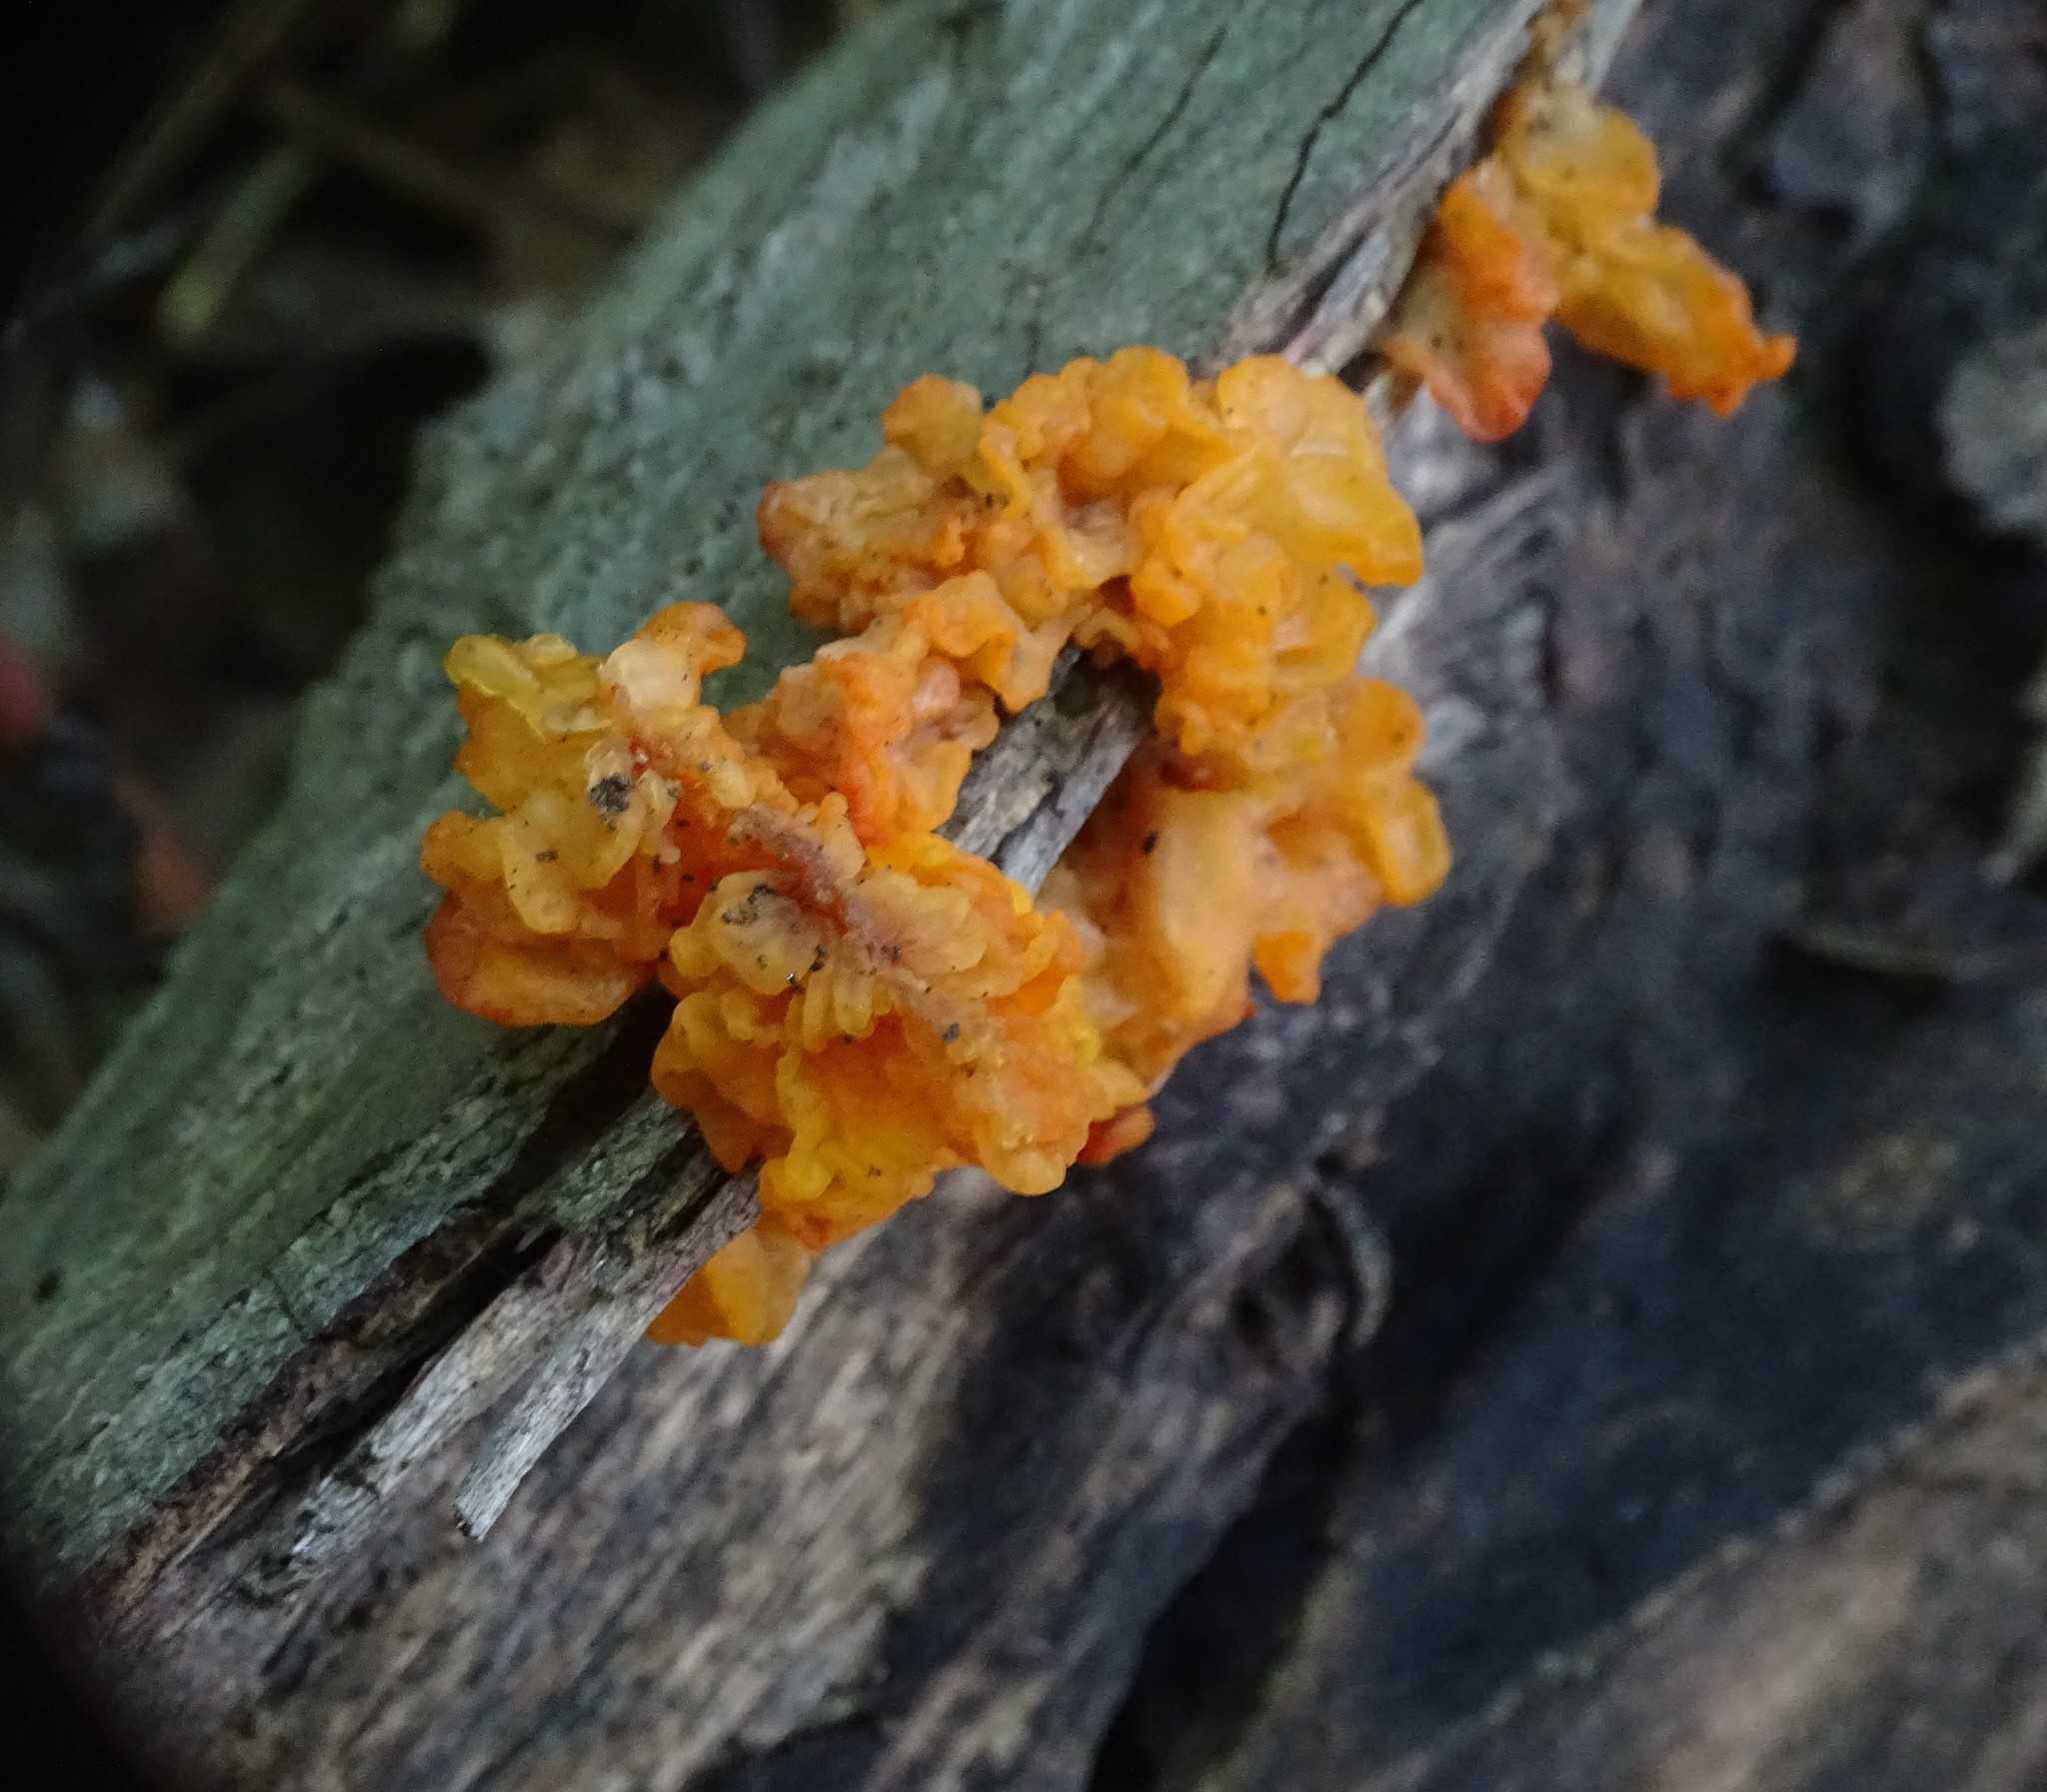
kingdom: Fungi
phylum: Basidiomycota
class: Tremellomycetes
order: Tremellales
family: Tremellaceae
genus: Tremella
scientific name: Tremella mesenterica
